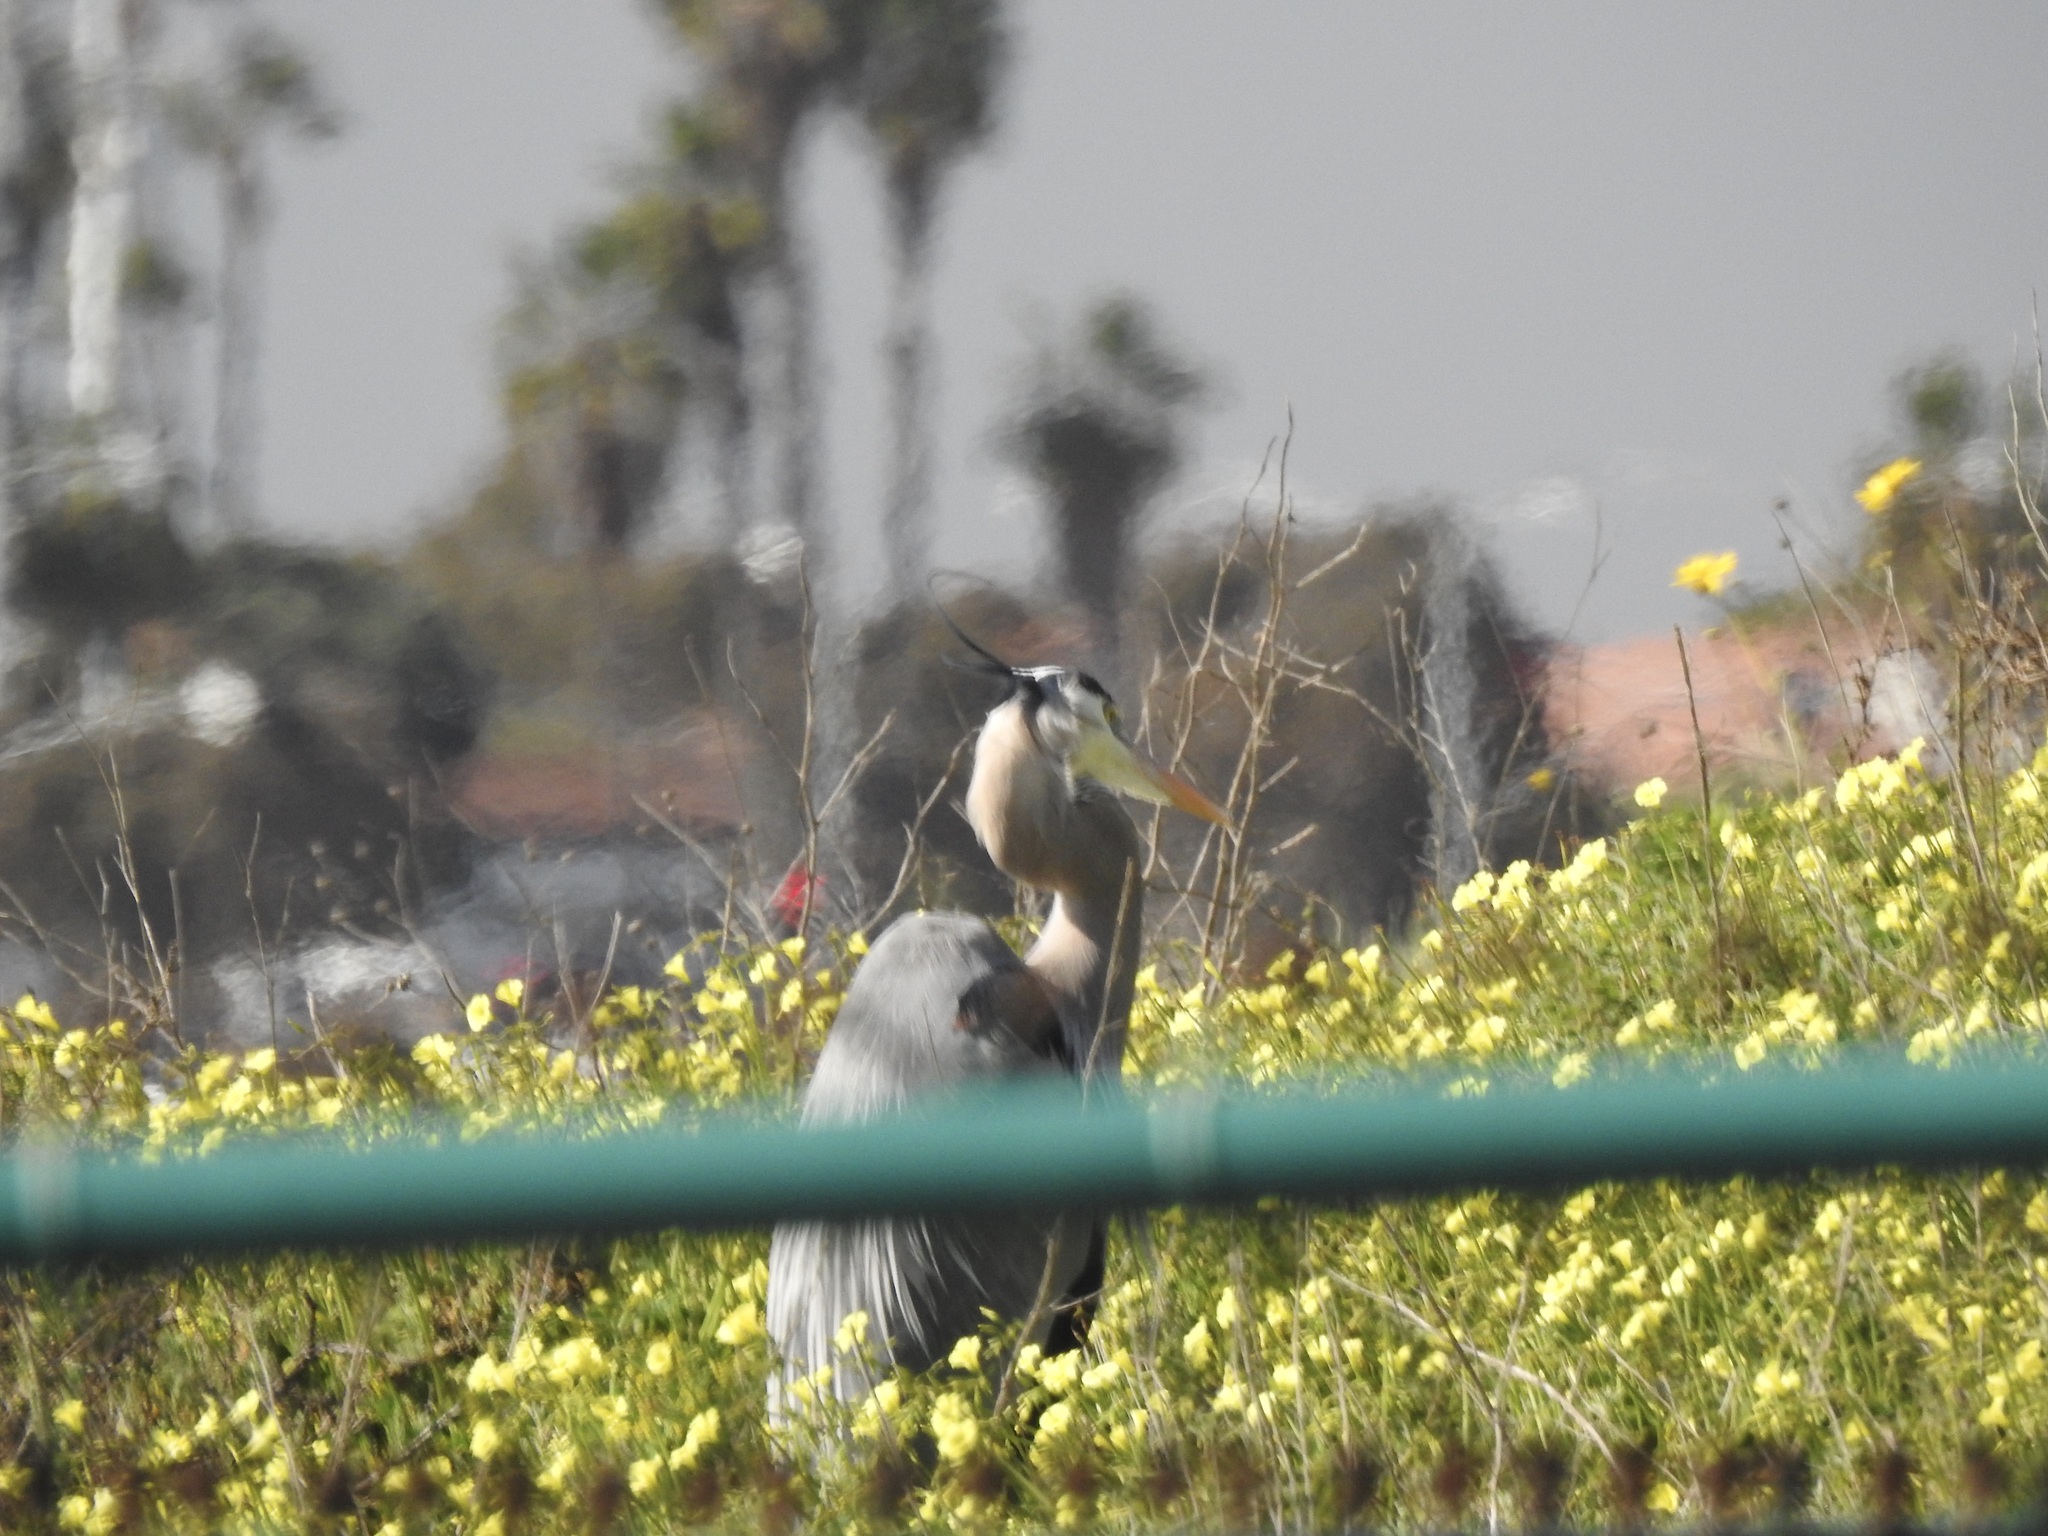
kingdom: Animalia
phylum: Chordata
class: Aves
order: Pelecaniformes
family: Ardeidae
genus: Ardea
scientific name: Ardea herodias
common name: Great blue heron
